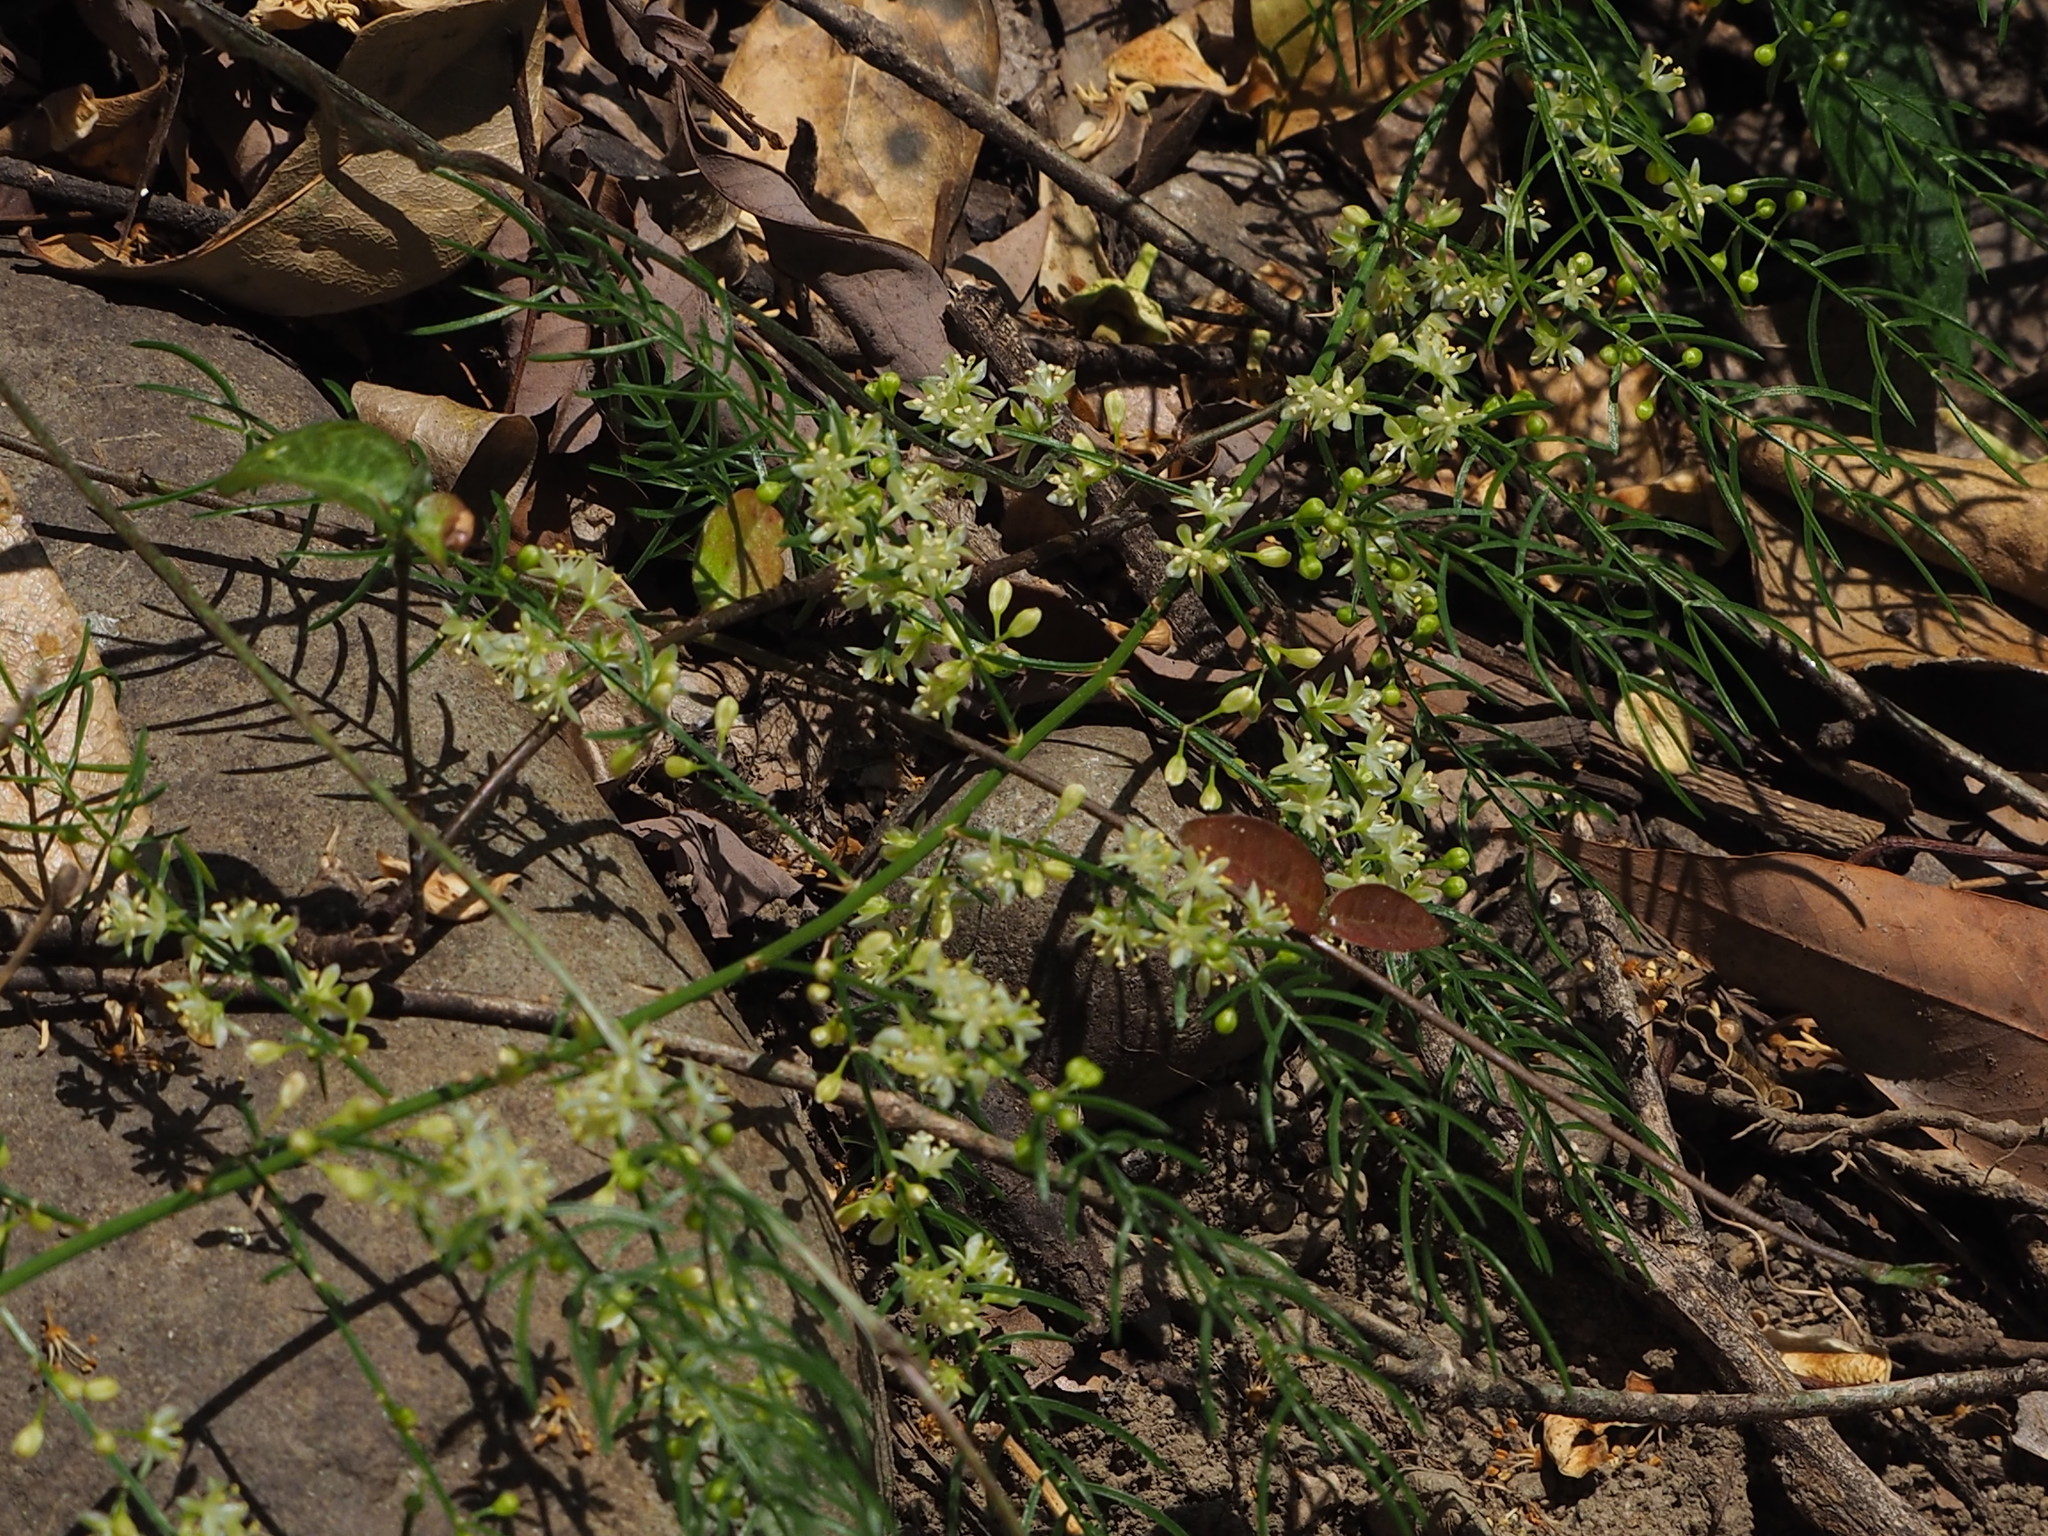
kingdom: Plantae
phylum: Tracheophyta
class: Liliopsida
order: Asparagales
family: Asparagaceae
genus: Asparagus
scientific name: Asparagus cochinchinensis
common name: Chinese asparagus
